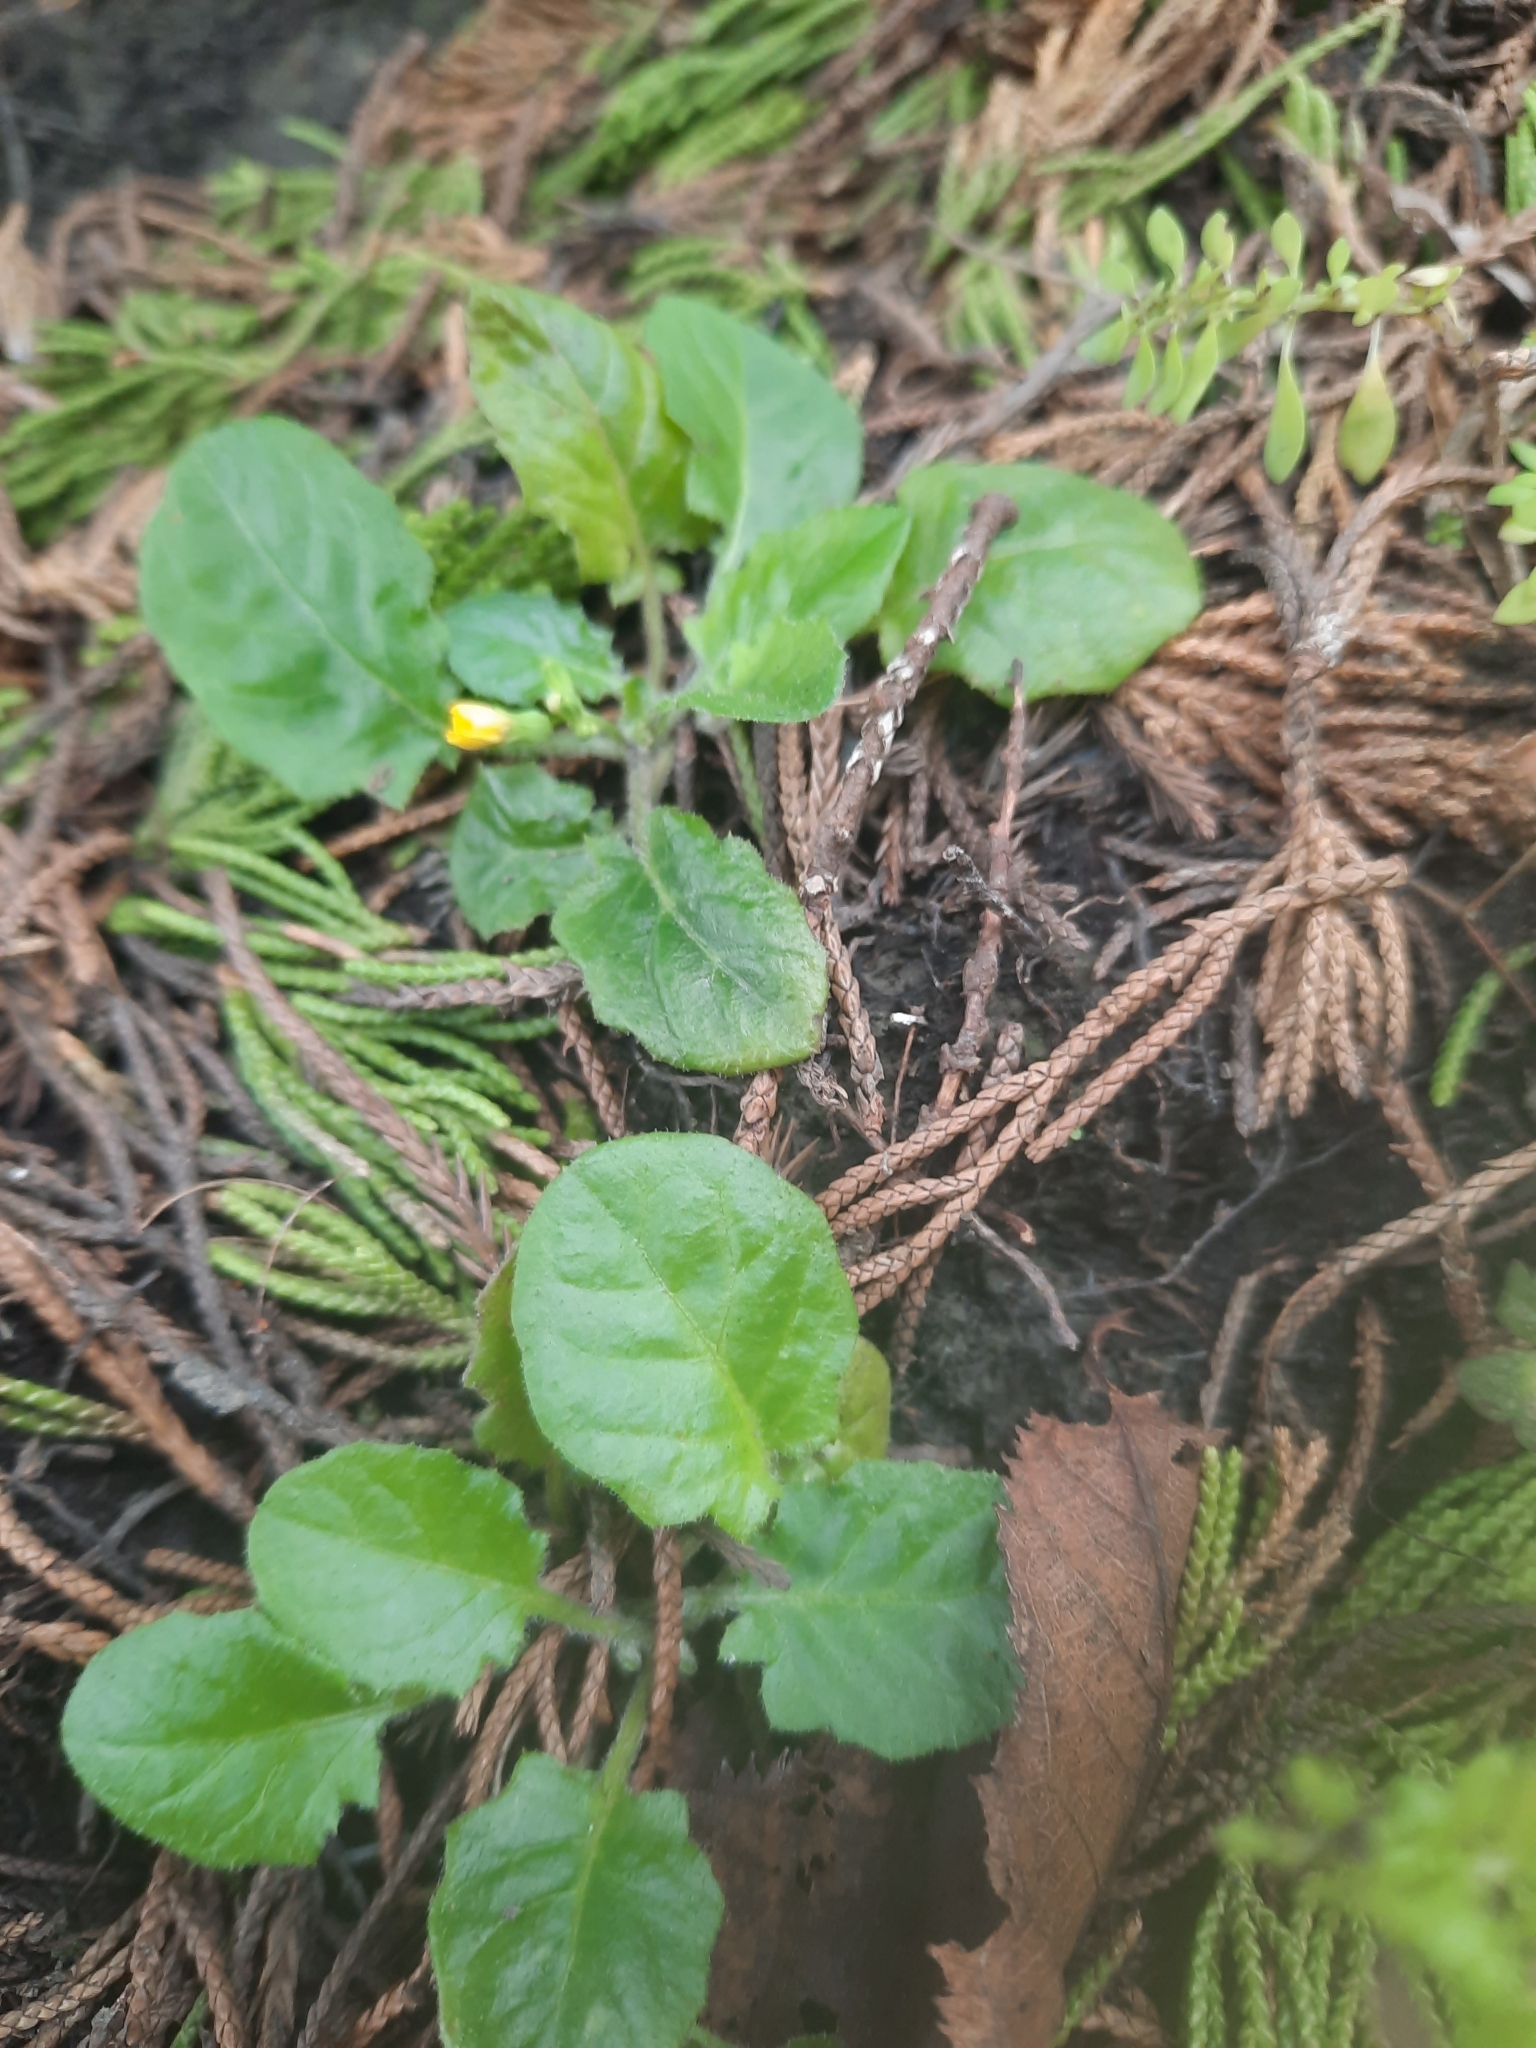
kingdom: Plantae
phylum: Tracheophyta
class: Magnoliopsida
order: Asterales
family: Asteraceae
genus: Youngia
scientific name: Youngia japonica
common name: Oriental false hawksbeard
